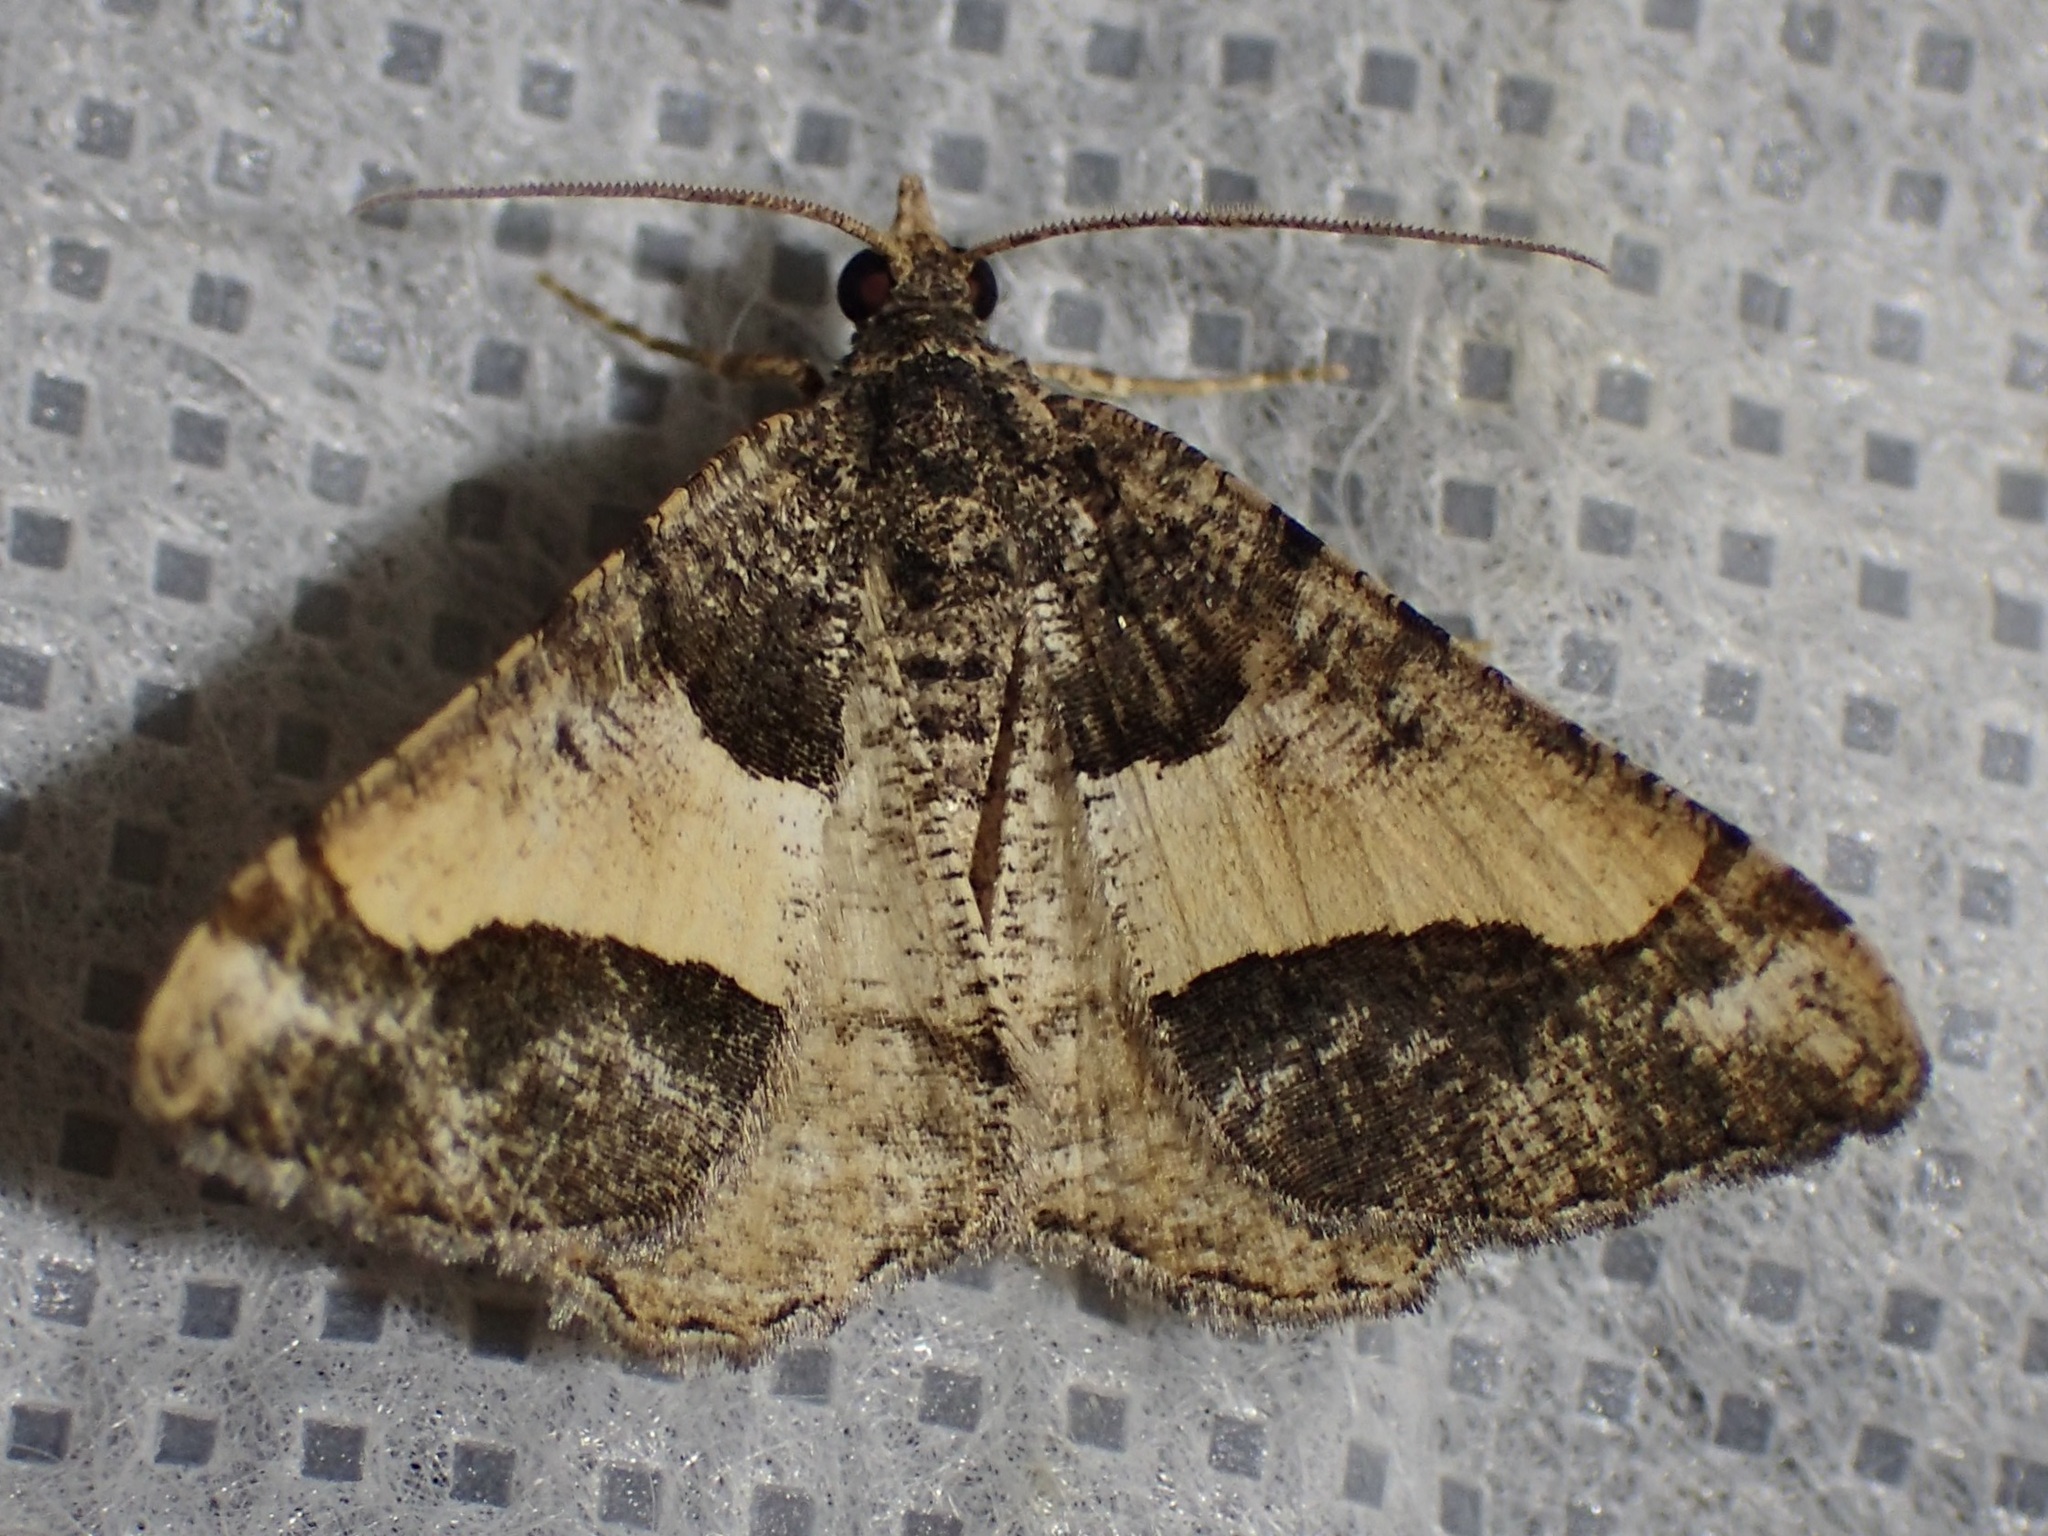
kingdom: Animalia
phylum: Arthropoda
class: Insecta
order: Lepidoptera
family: Geometridae
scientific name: Geometridae
